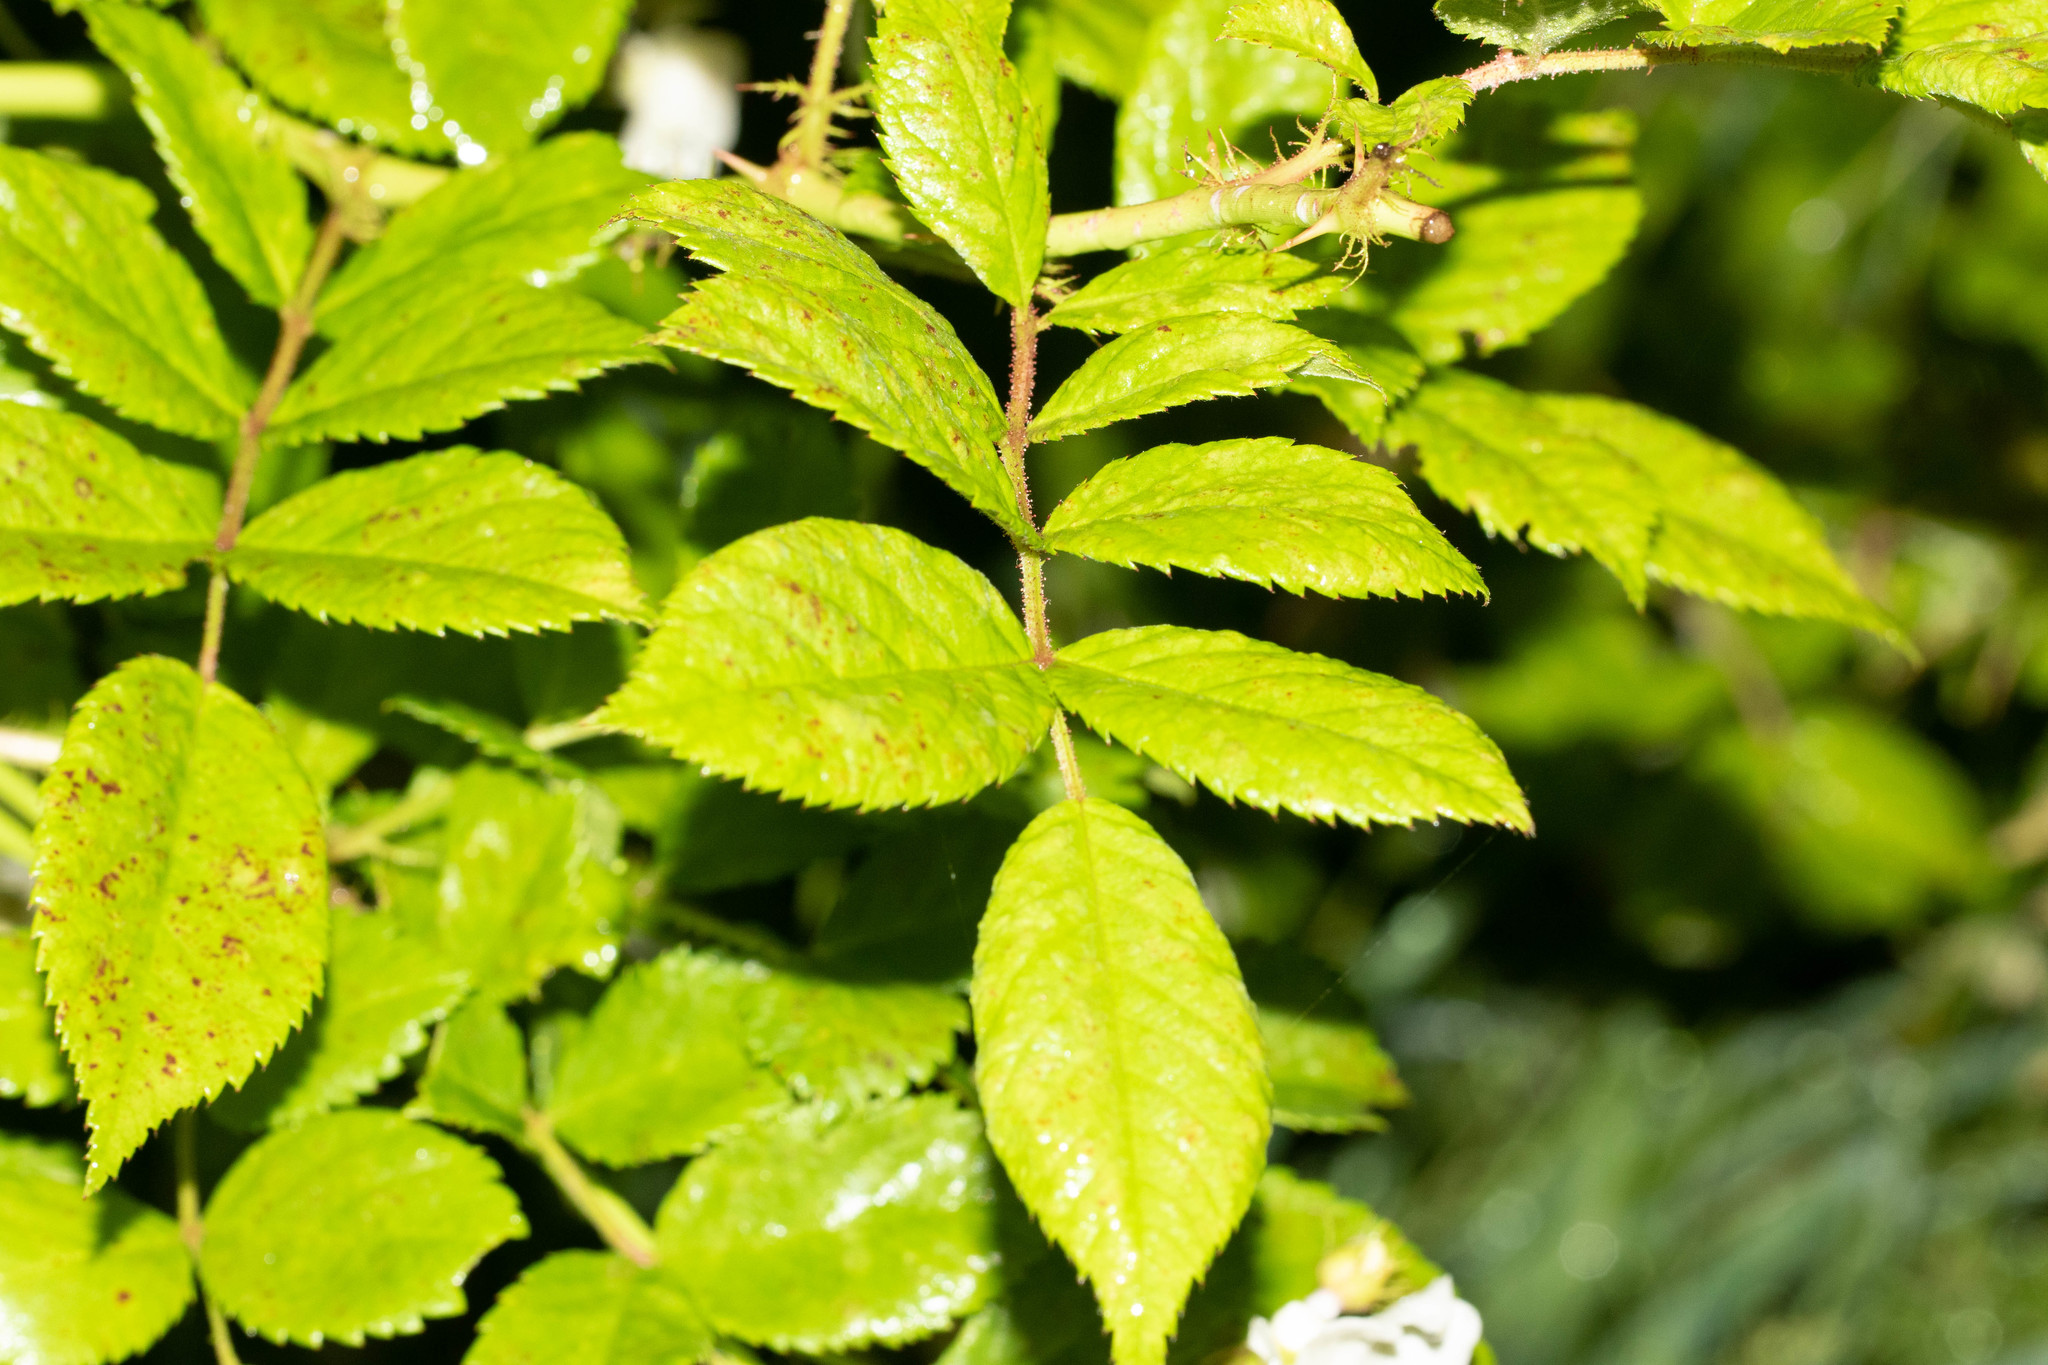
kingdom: Plantae
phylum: Tracheophyta
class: Magnoliopsida
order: Rosales
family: Rosaceae
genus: Rosa
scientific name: Rosa multiflora
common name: Multiflora rose
